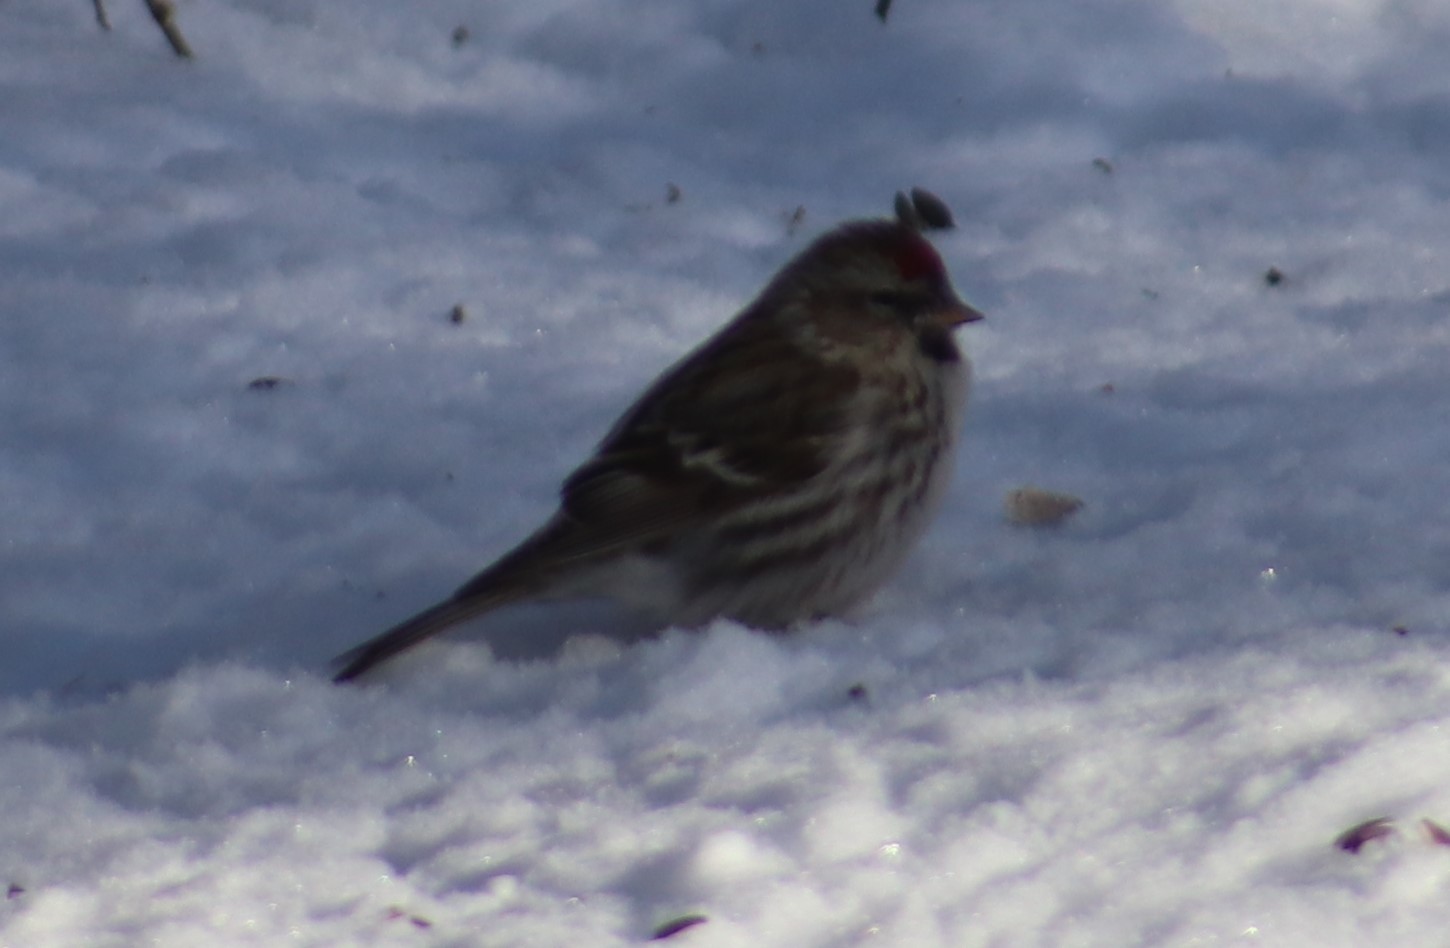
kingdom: Animalia
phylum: Chordata
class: Aves
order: Passeriformes
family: Fringillidae
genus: Acanthis
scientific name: Acanthis flammea
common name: Common redpoll
